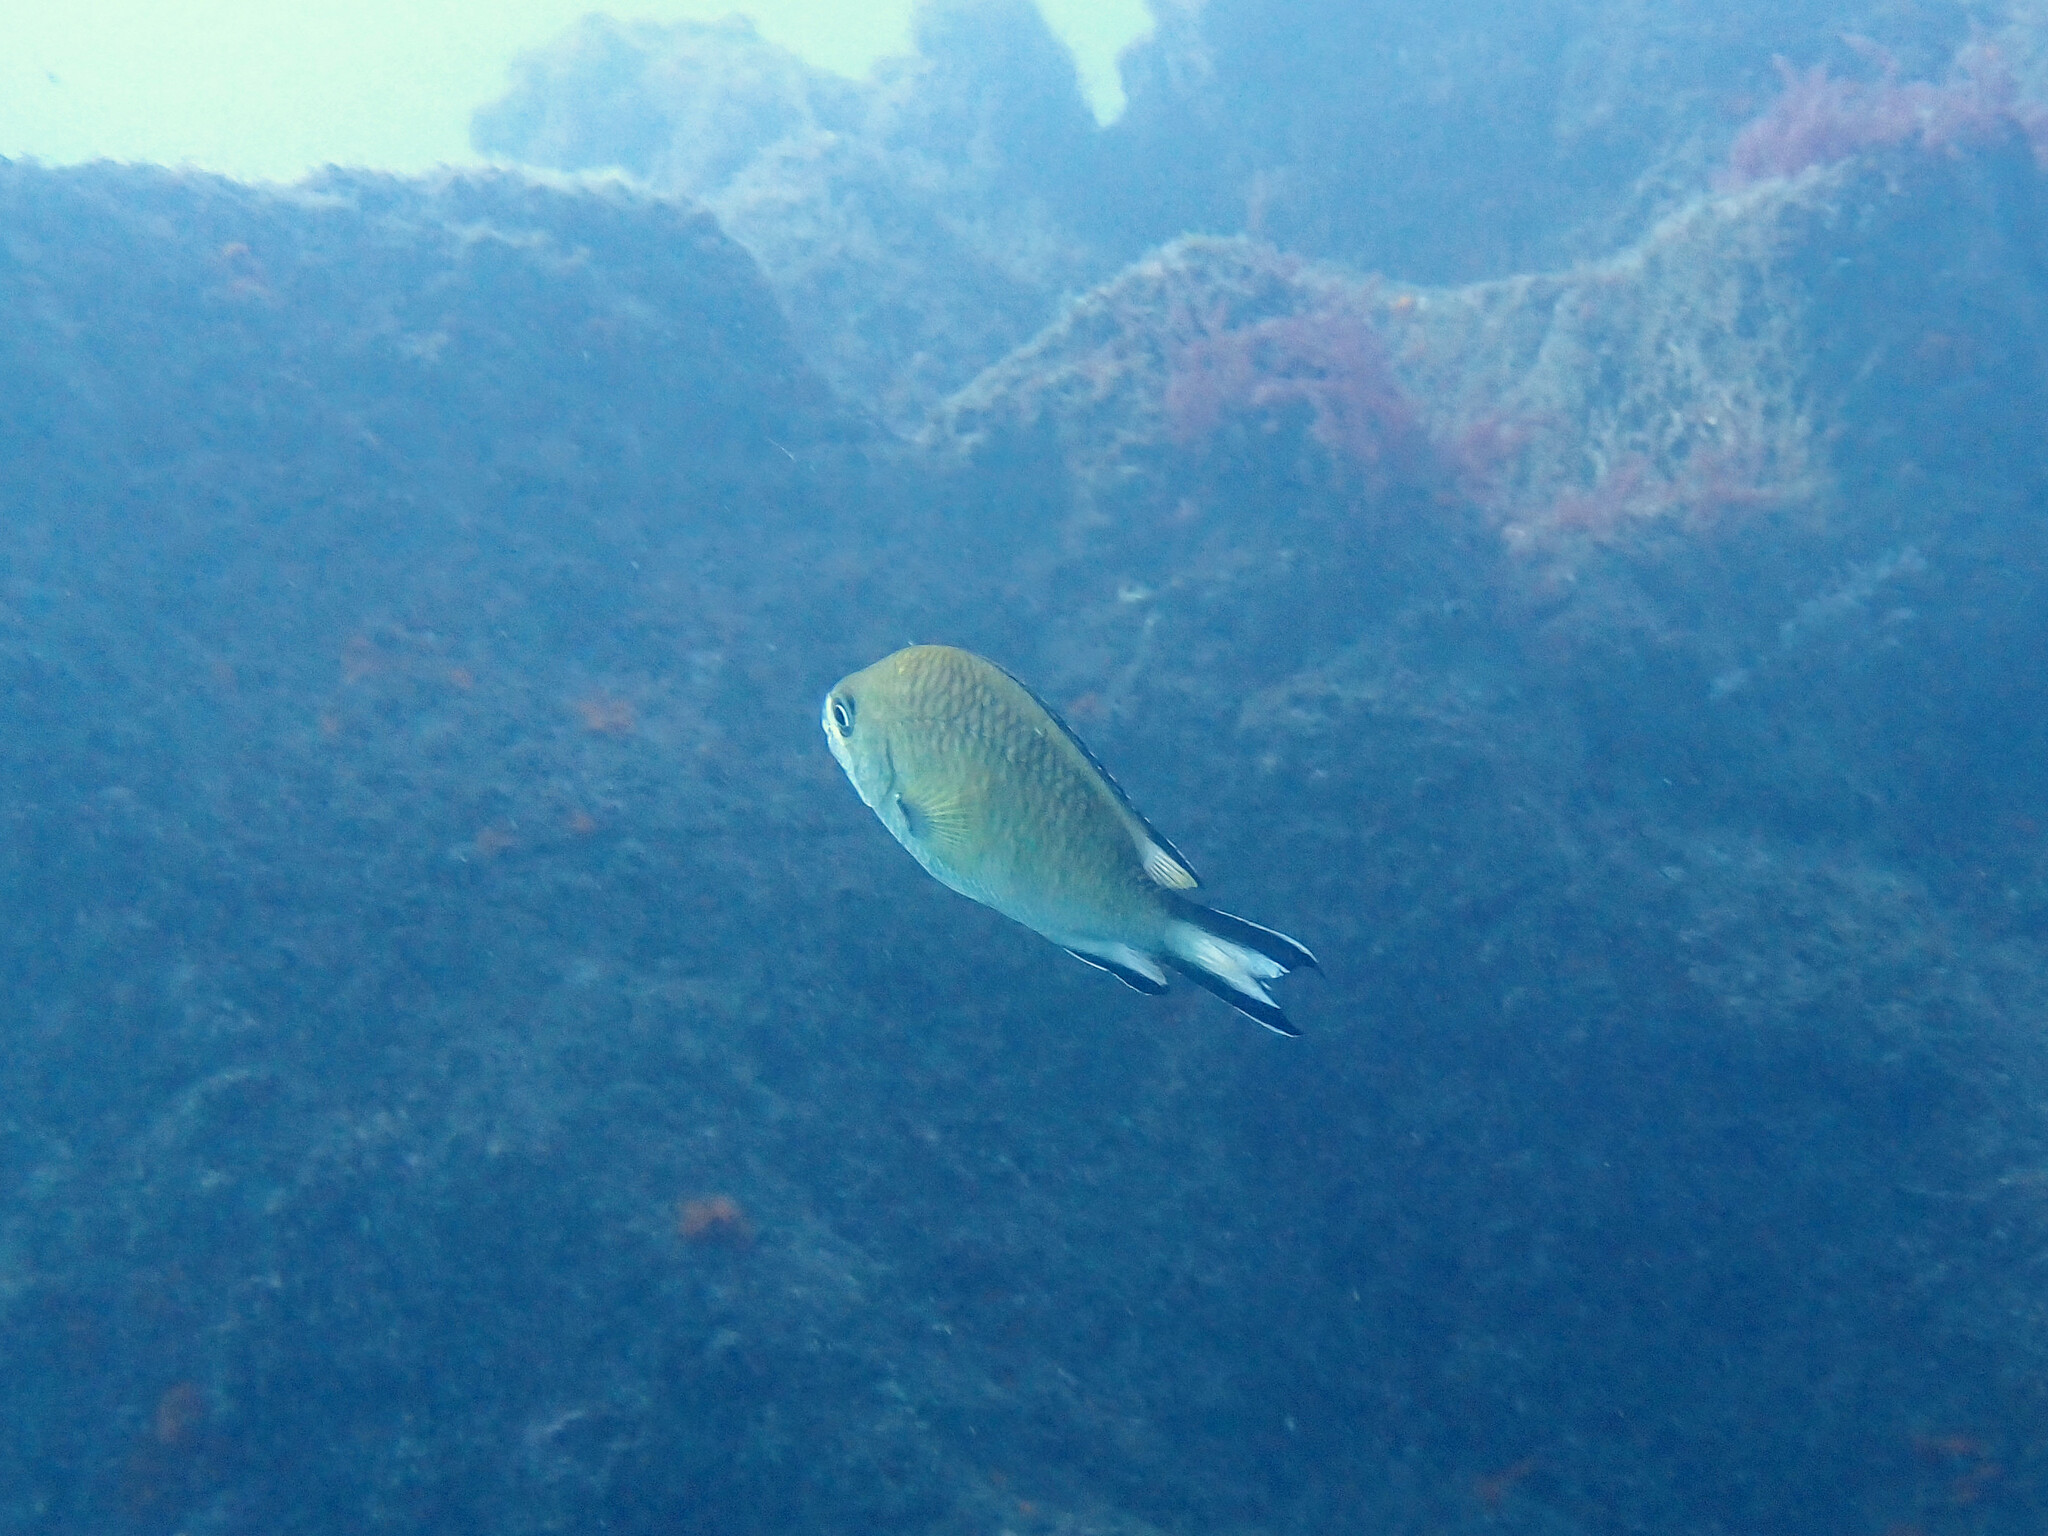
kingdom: Animalia
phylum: Chordata
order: Perciformes
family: Pomacentridae
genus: Chromis
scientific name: Chromis limbata
